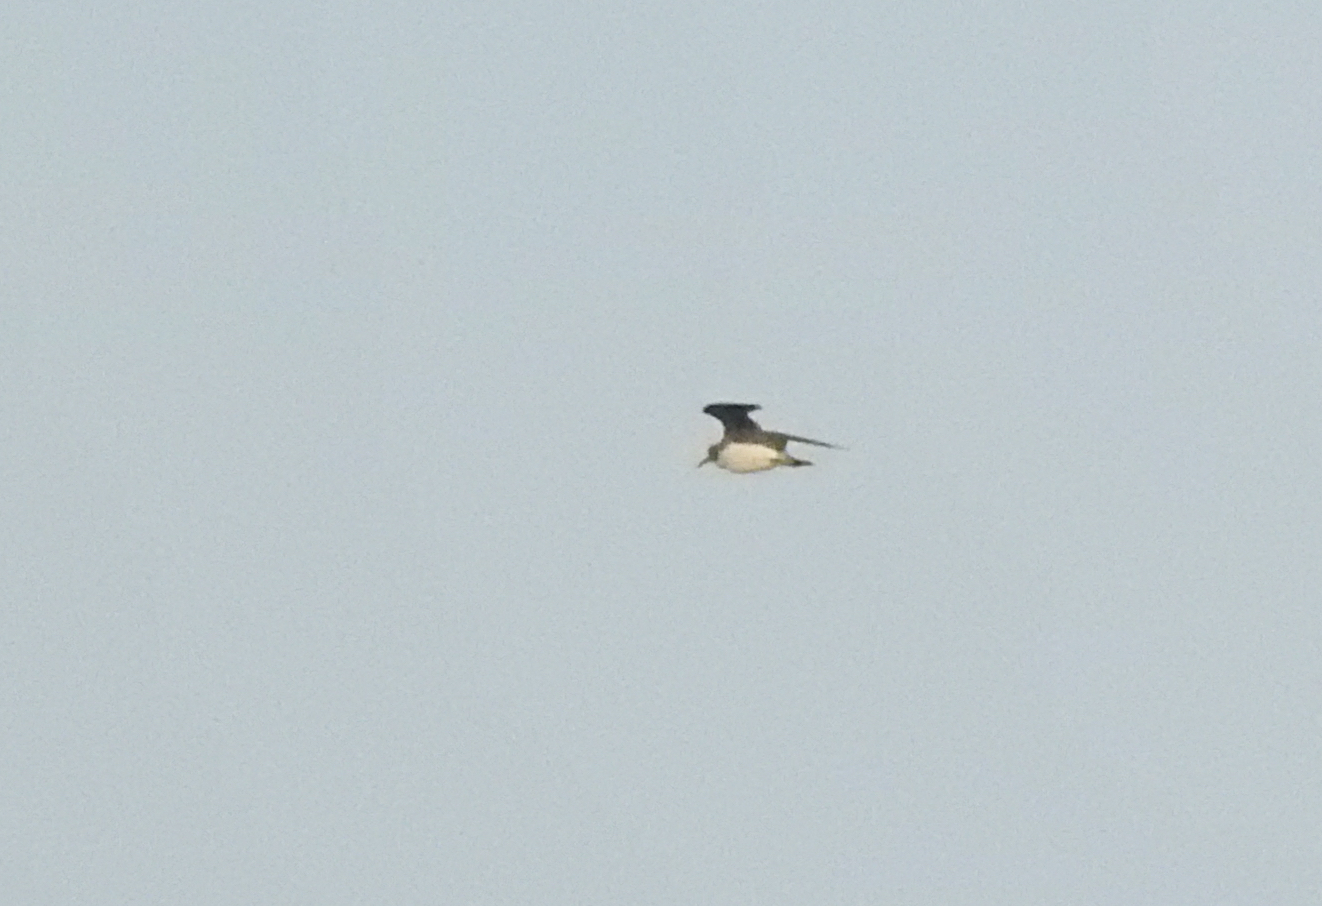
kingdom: Animalia
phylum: Chordata
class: Aves
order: Charadriiformes
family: Scolopacidae
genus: Tringa
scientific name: Tringa solitaria
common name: Solitary sandpiper
